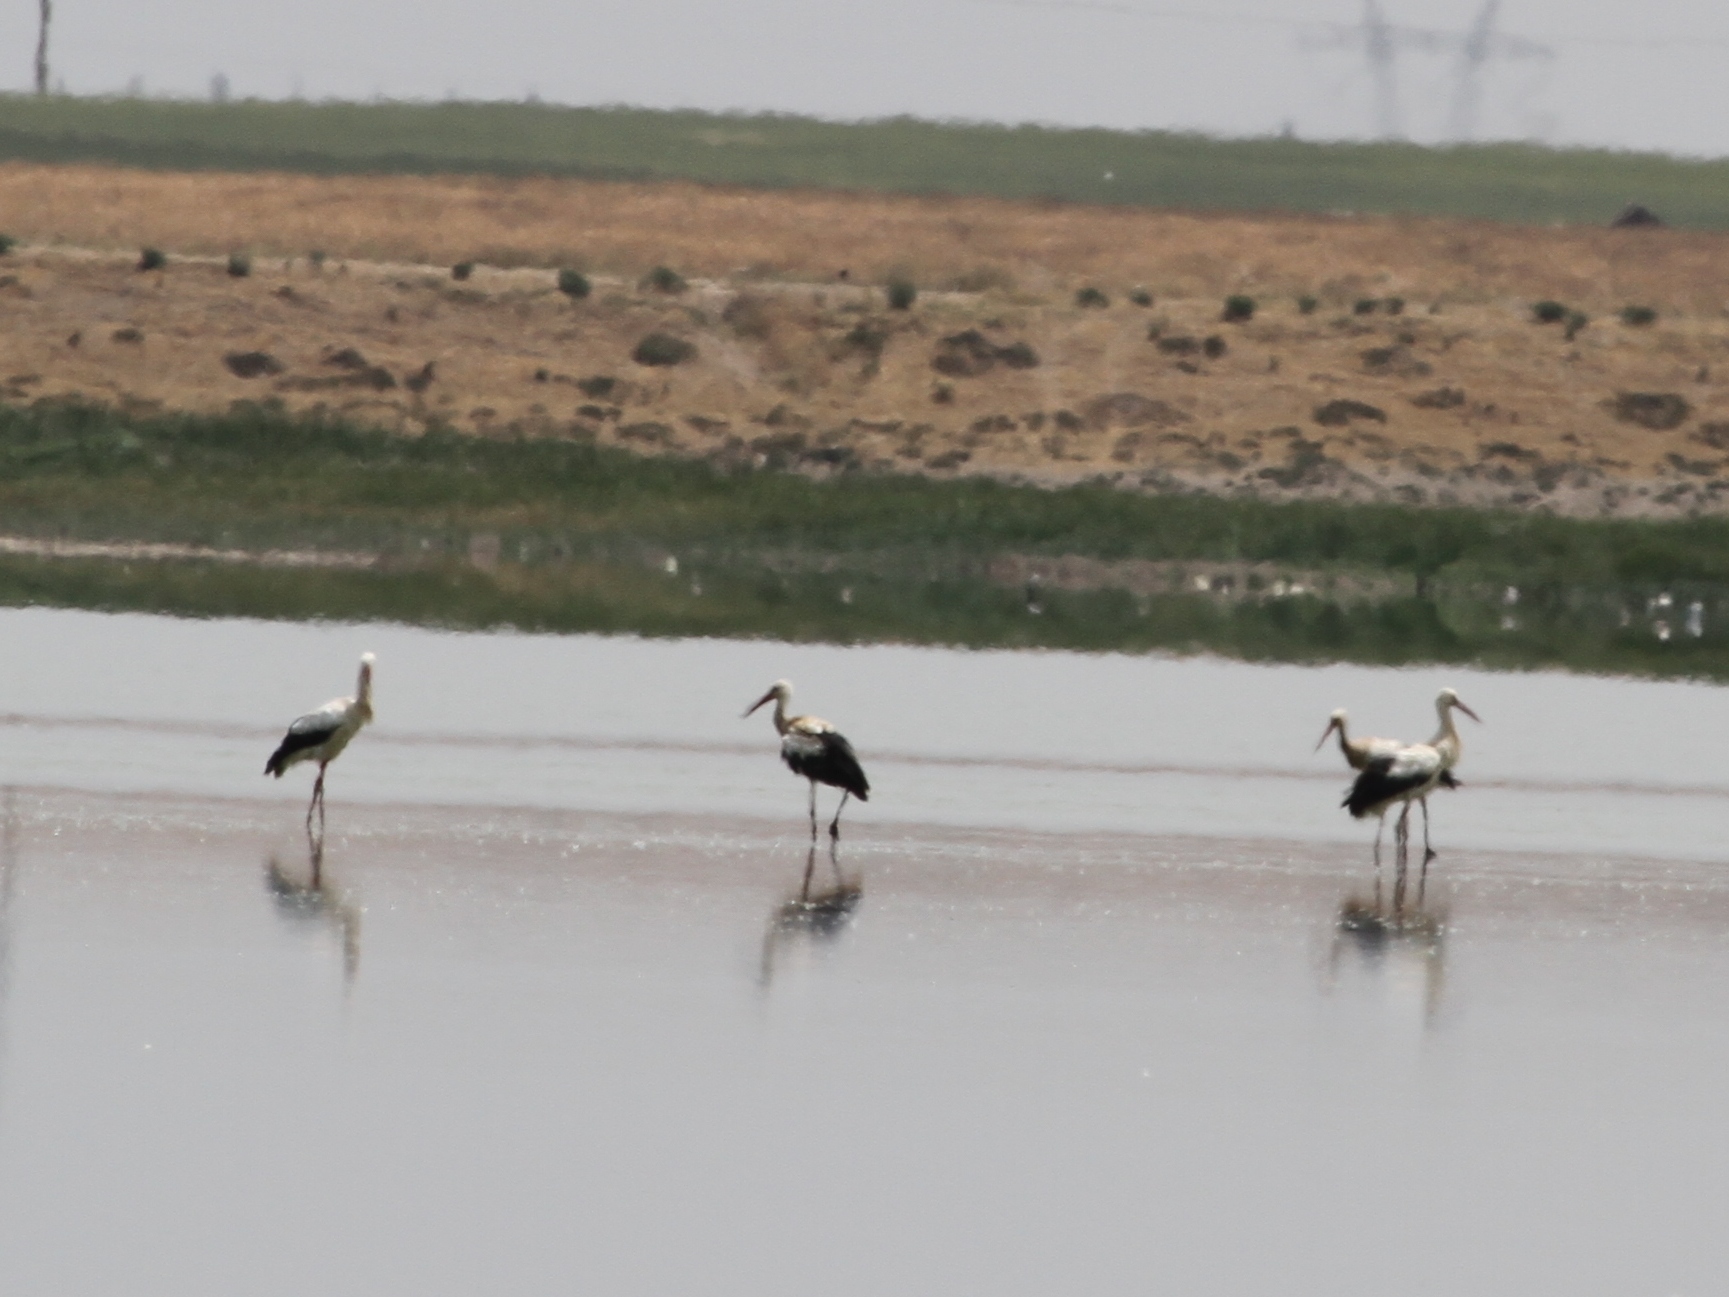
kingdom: Animalia
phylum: Chordata
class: Aves
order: Ciconiiformes
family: Ciconiidae
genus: Ciconia
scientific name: Ciconia ciconia
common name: White stork
